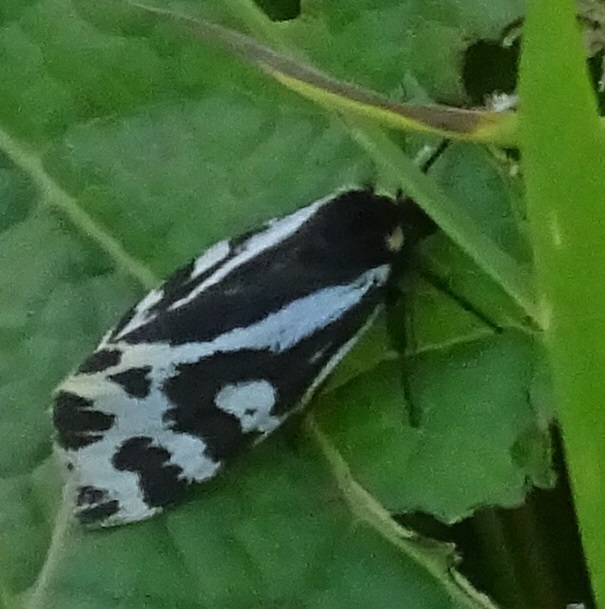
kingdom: Animalia
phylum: Arthropoda
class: Insecta
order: Lepidoptera
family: Erebidae
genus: Parasemia
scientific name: Parasemia plantaginis
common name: Wood tiger
